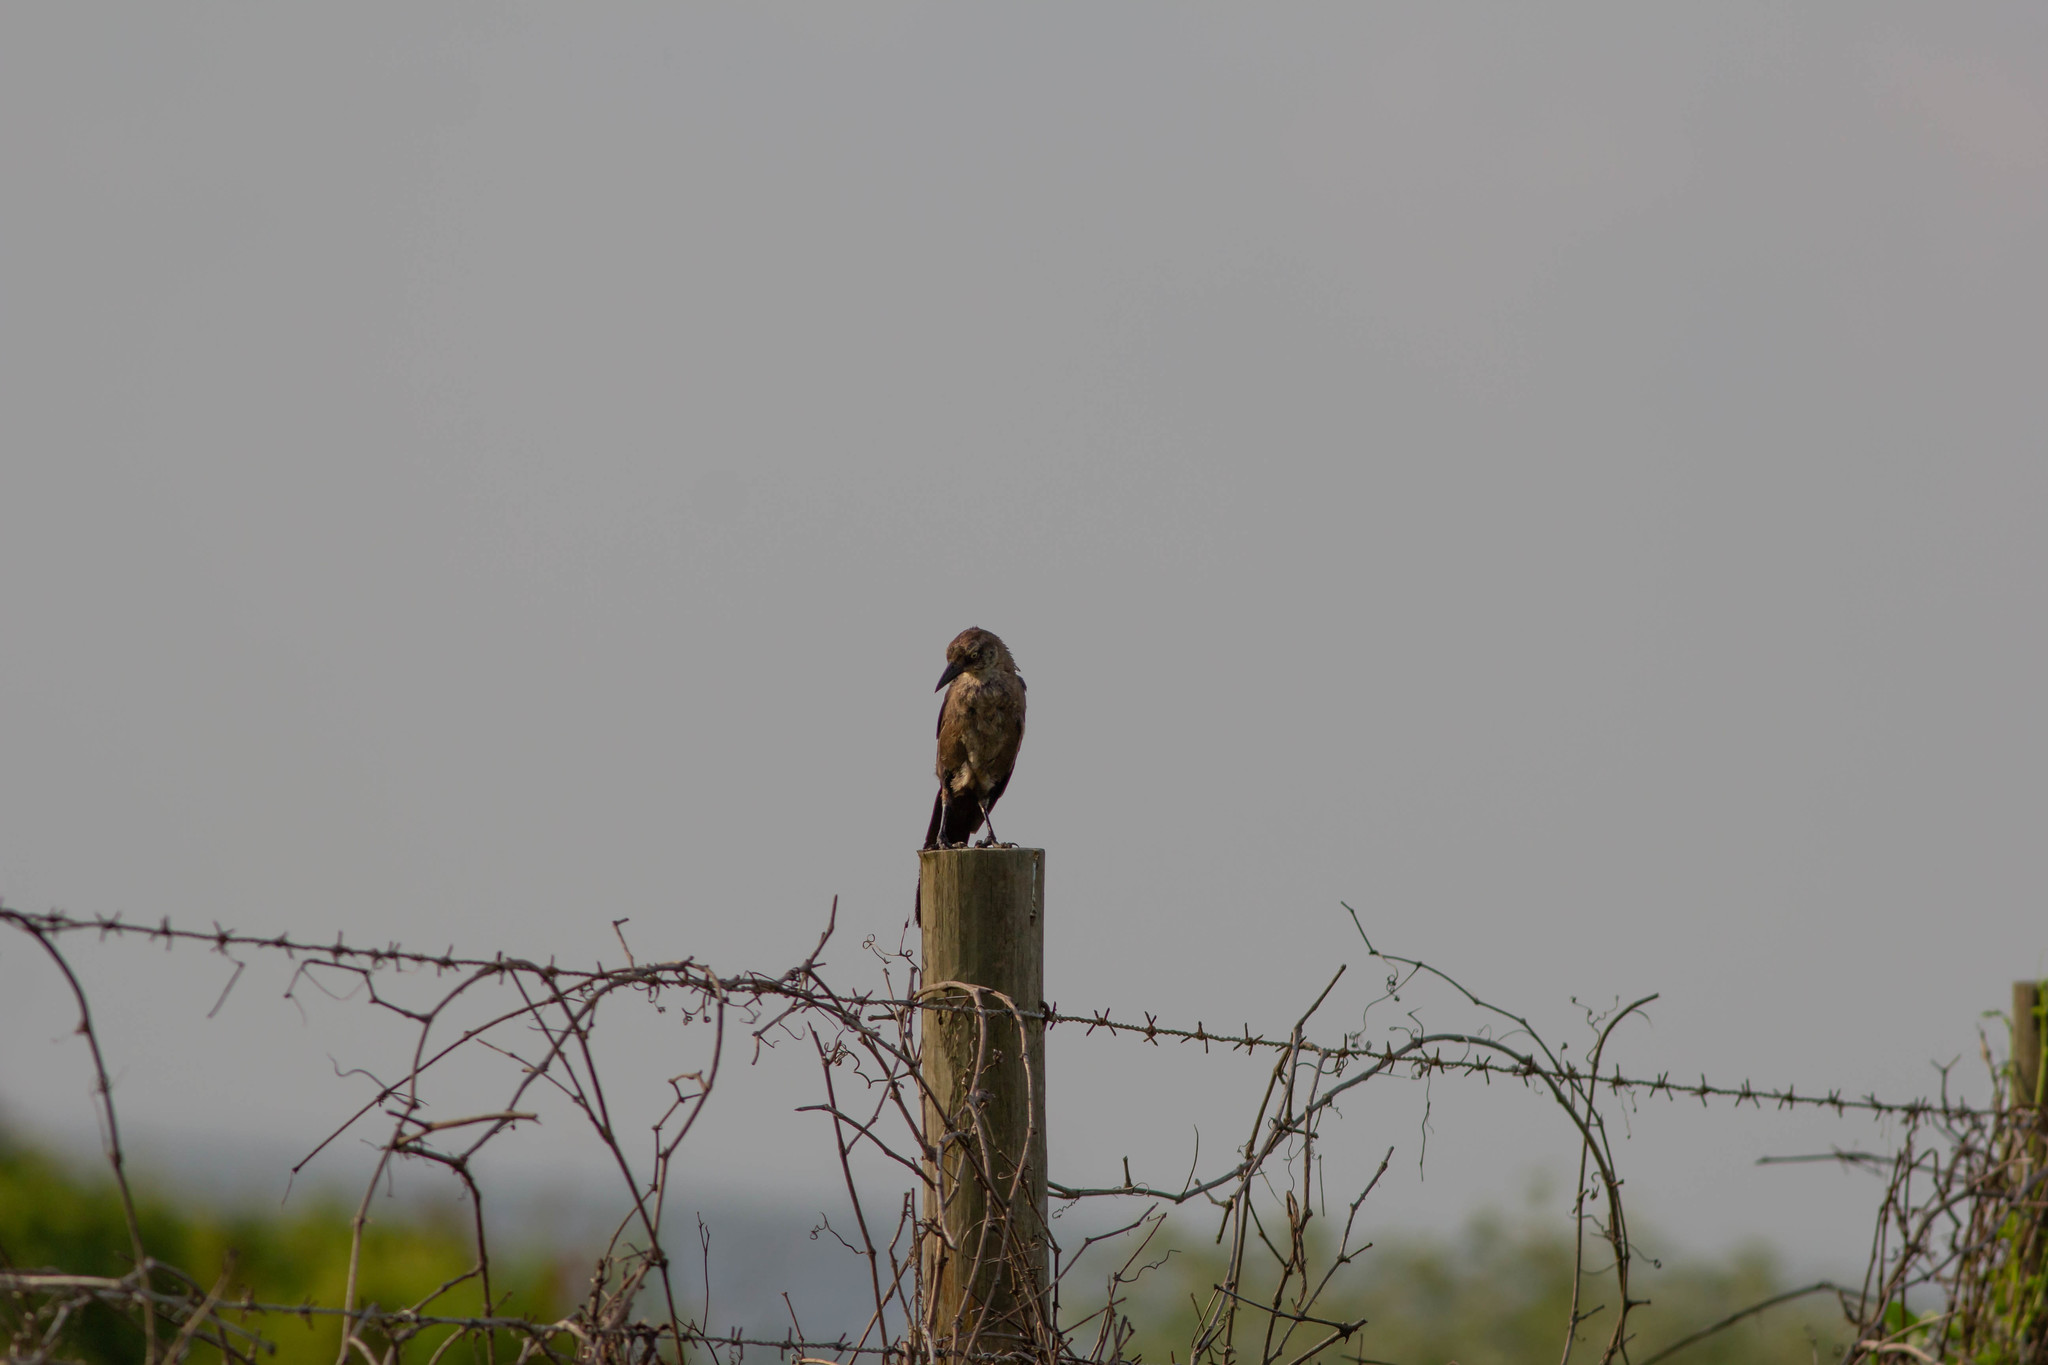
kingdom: Animalia
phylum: Chordata
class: Aves
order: Passeriformes
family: Icteridae
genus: Quiscalus
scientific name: Quiscalus mexicanus
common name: Great-tailed grackle
